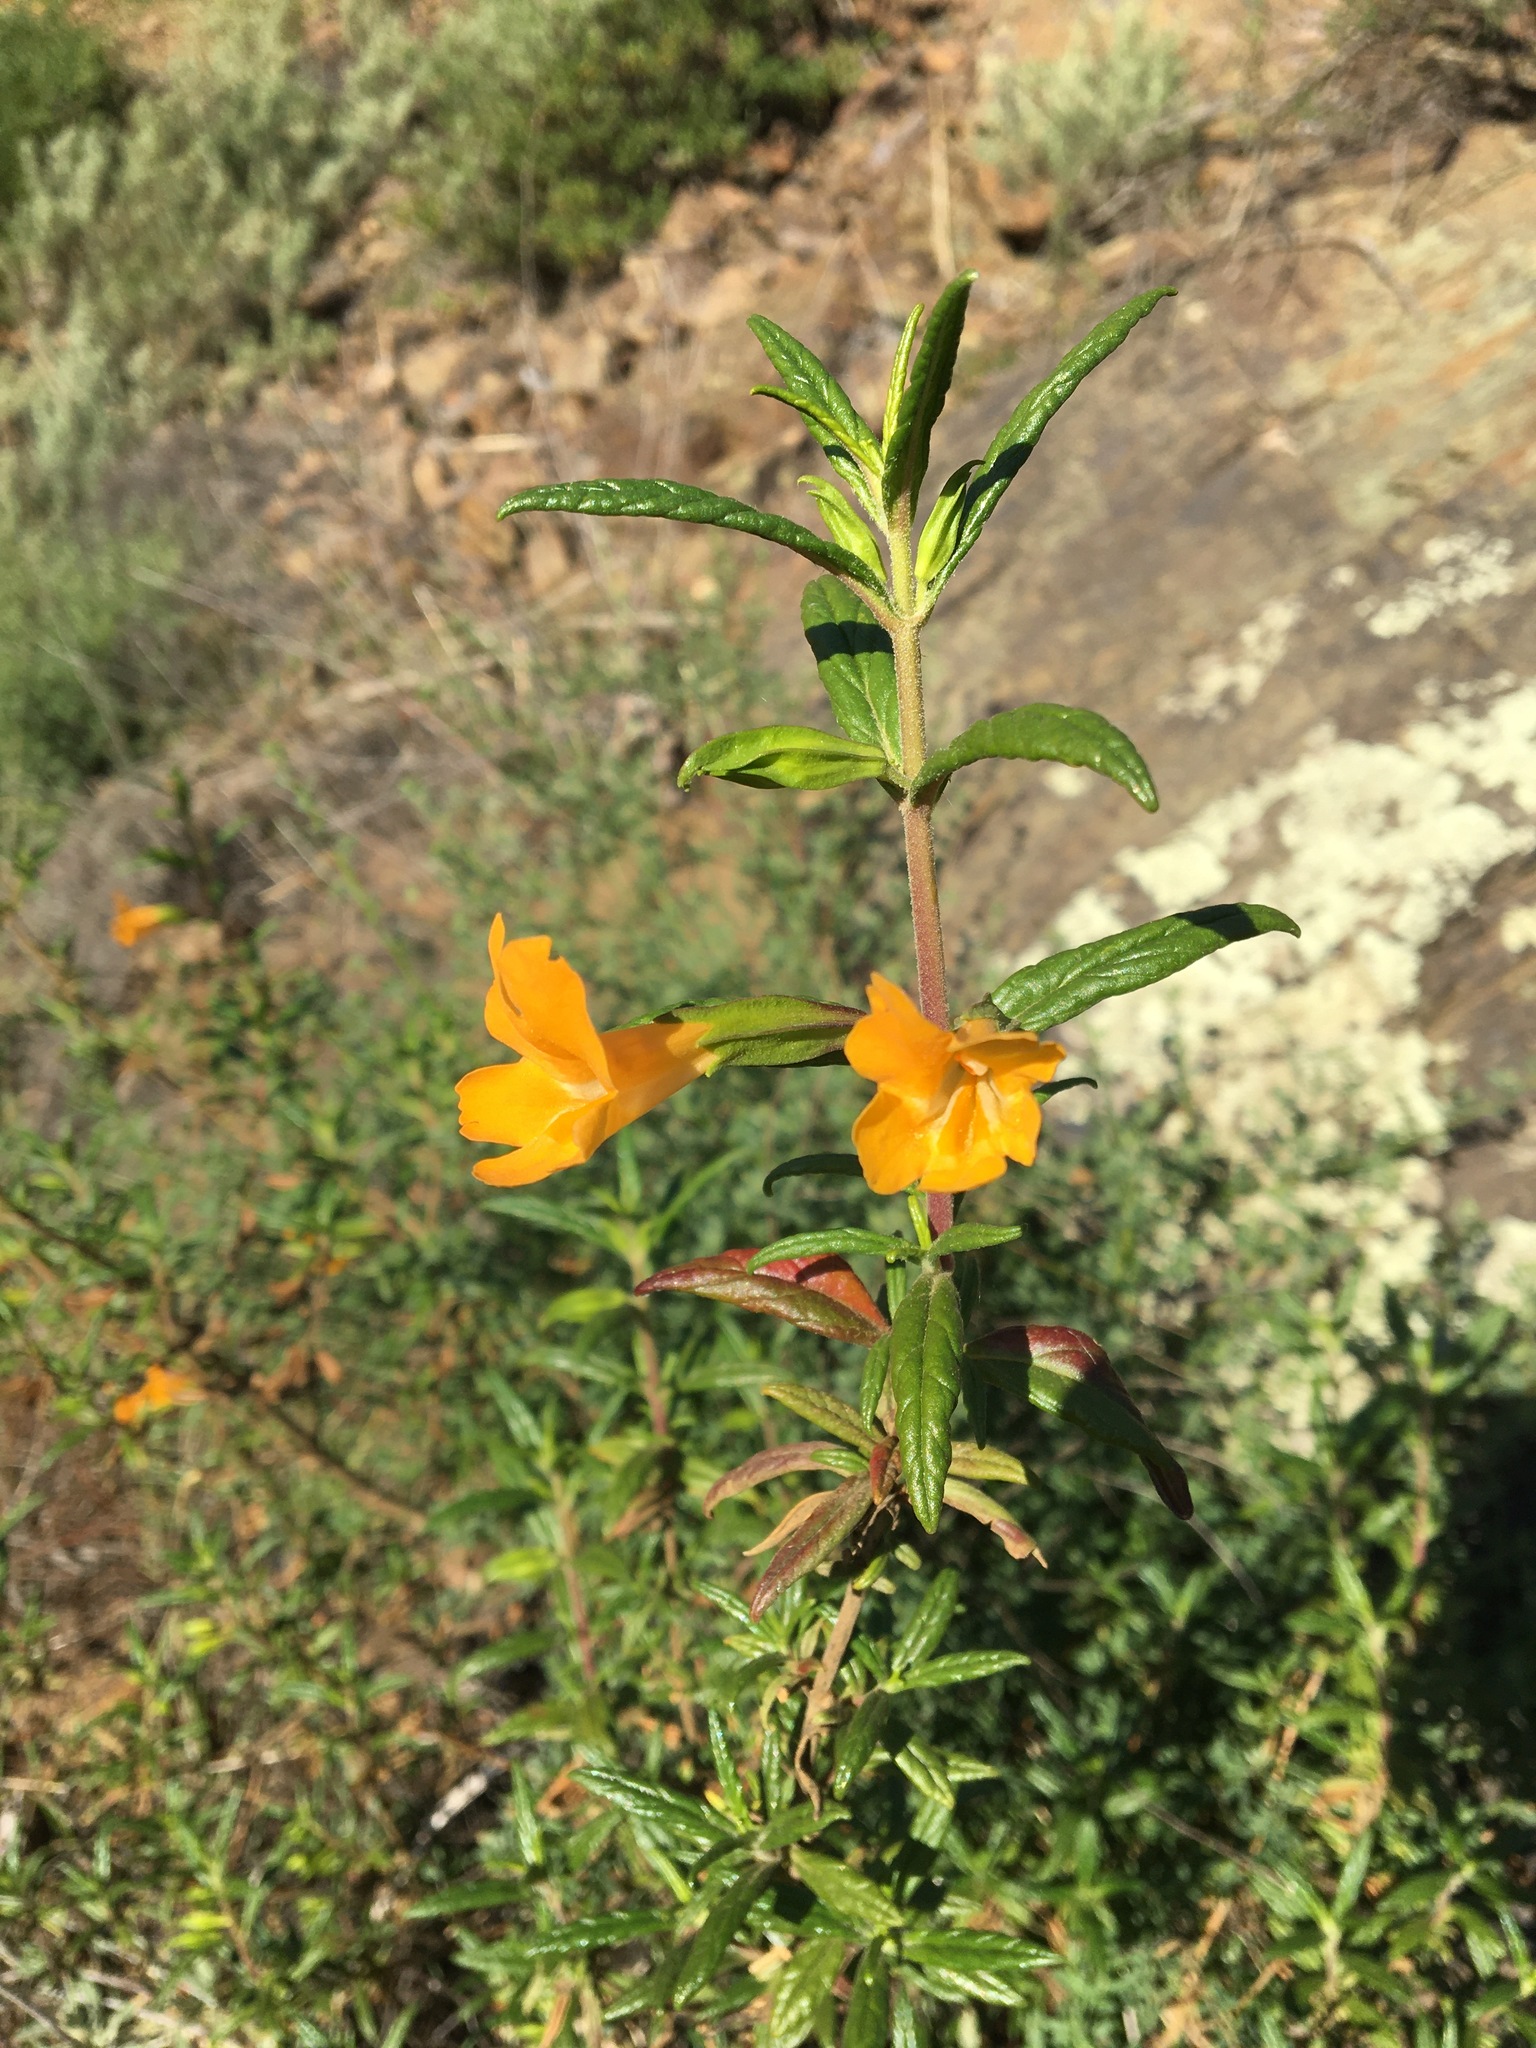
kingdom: Plantae
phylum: Tracheophyta
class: Magnoliopsida
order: Lamiales
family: Phrymaceae
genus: Diplacus
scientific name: Diplacus aurantiacus
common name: Bush monkey-flower
